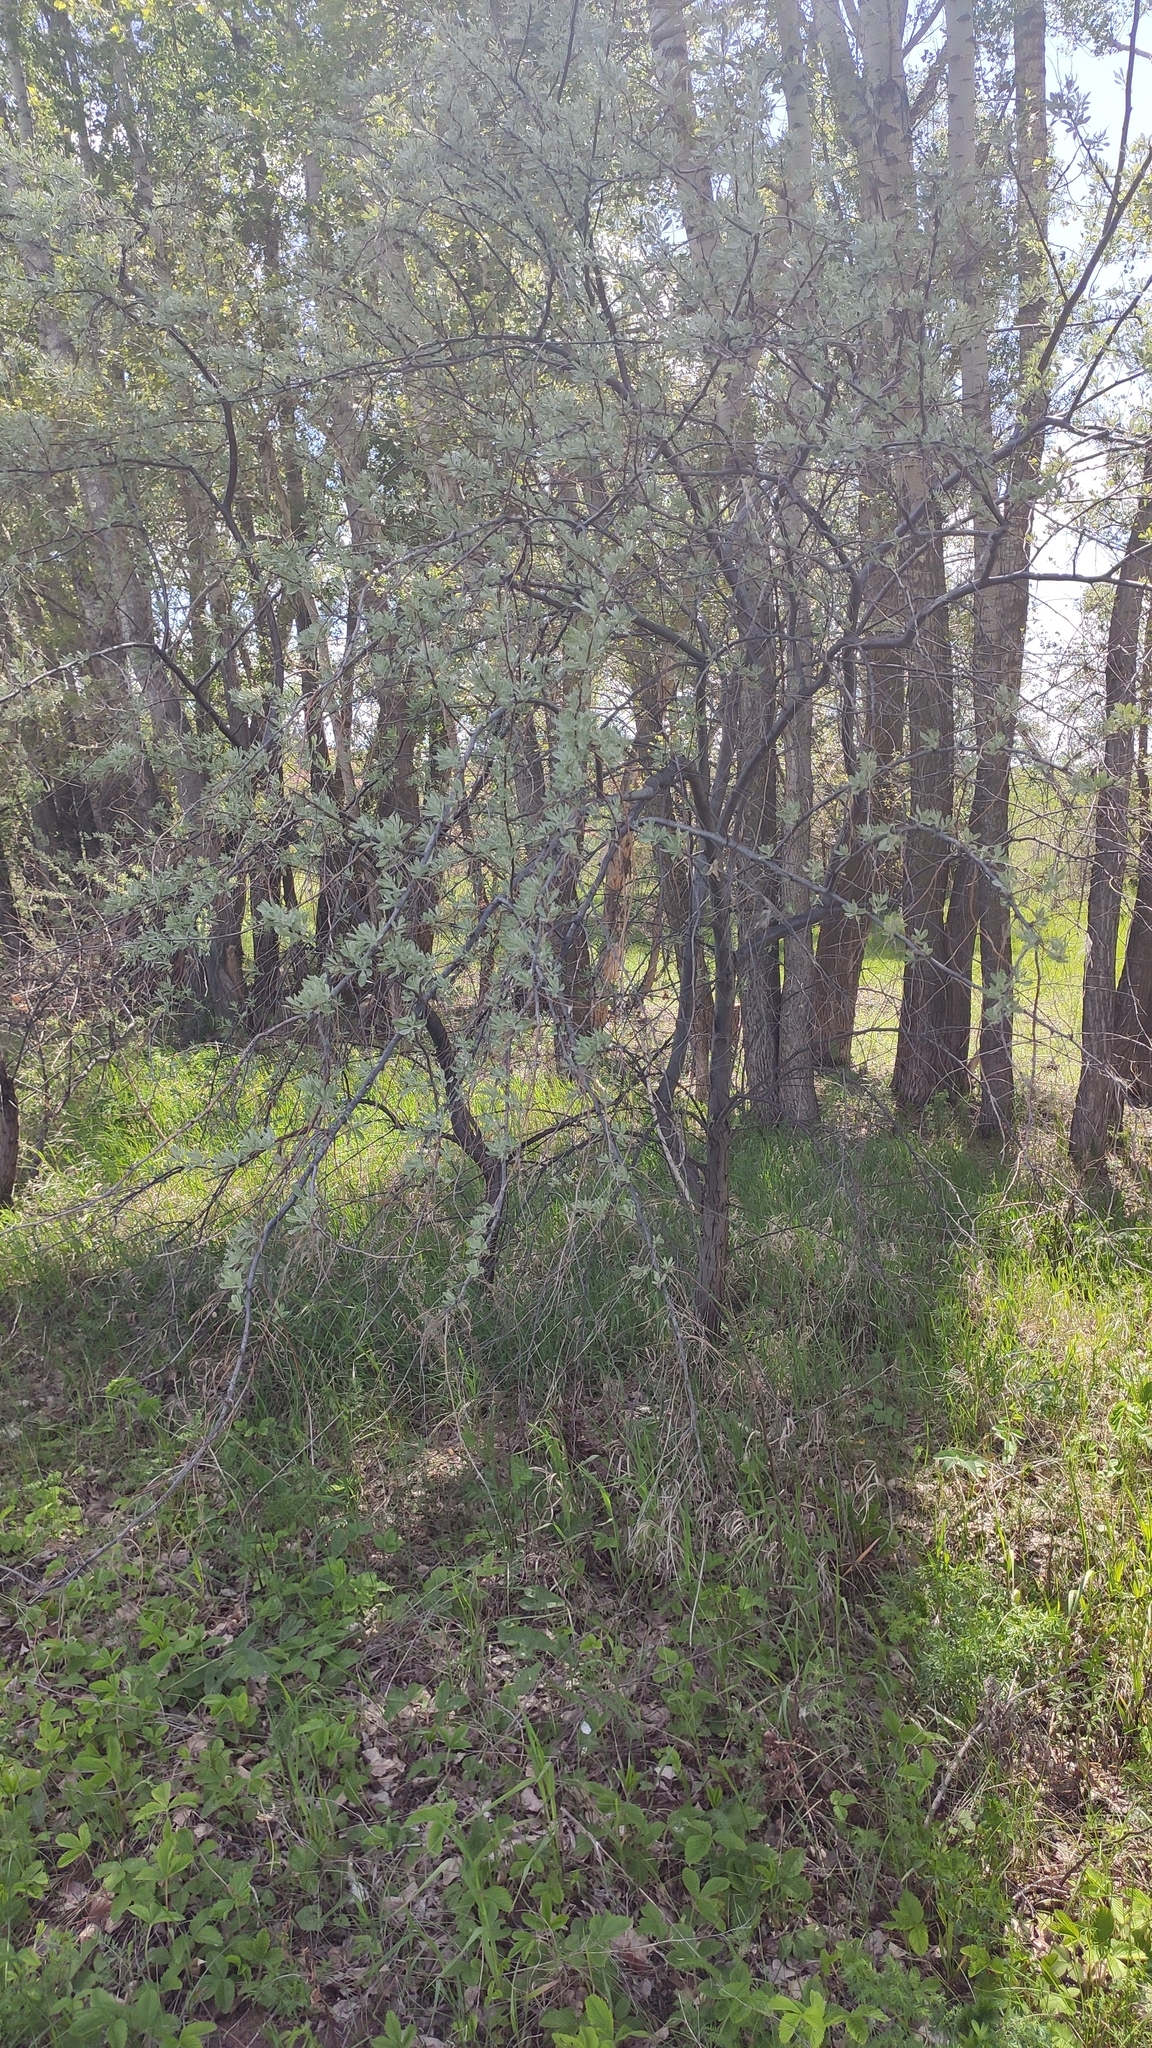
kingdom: Plantae
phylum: Tracheophyta
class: Magnoliopsida
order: Rosales
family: Elaeagnaceae
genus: Elaeagnus
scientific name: Elaeagnus angustifolia
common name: Russian olive
